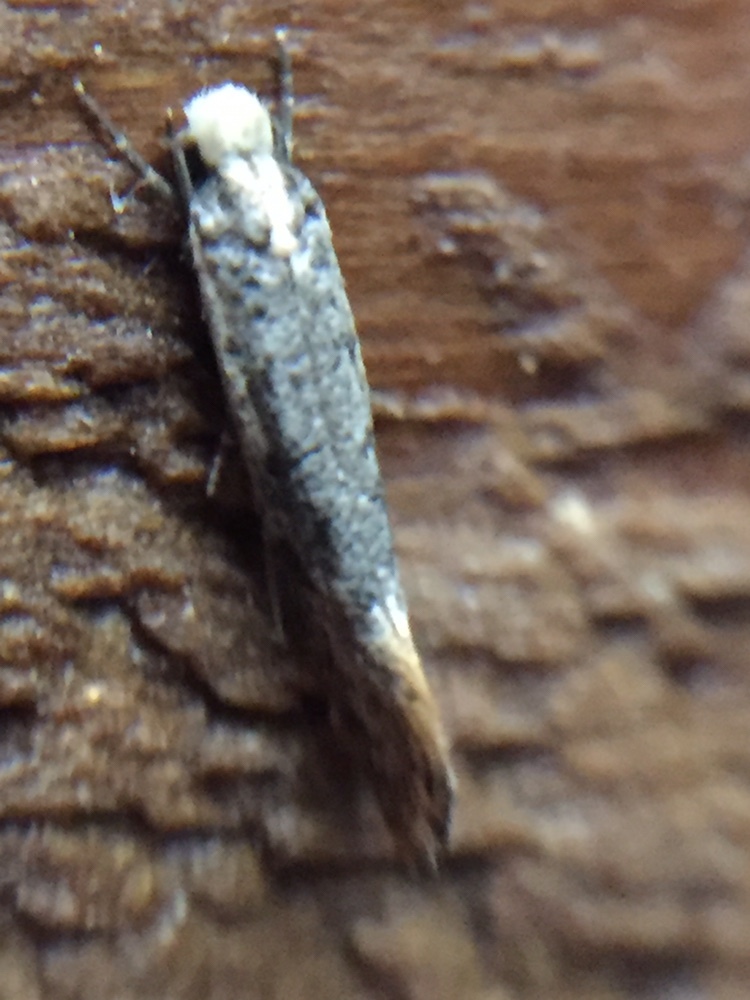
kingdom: Animalia
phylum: Arthropoda
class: Insecta
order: Lepidoptera
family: Tineidae
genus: Monopis
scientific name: Monopis argillacea
